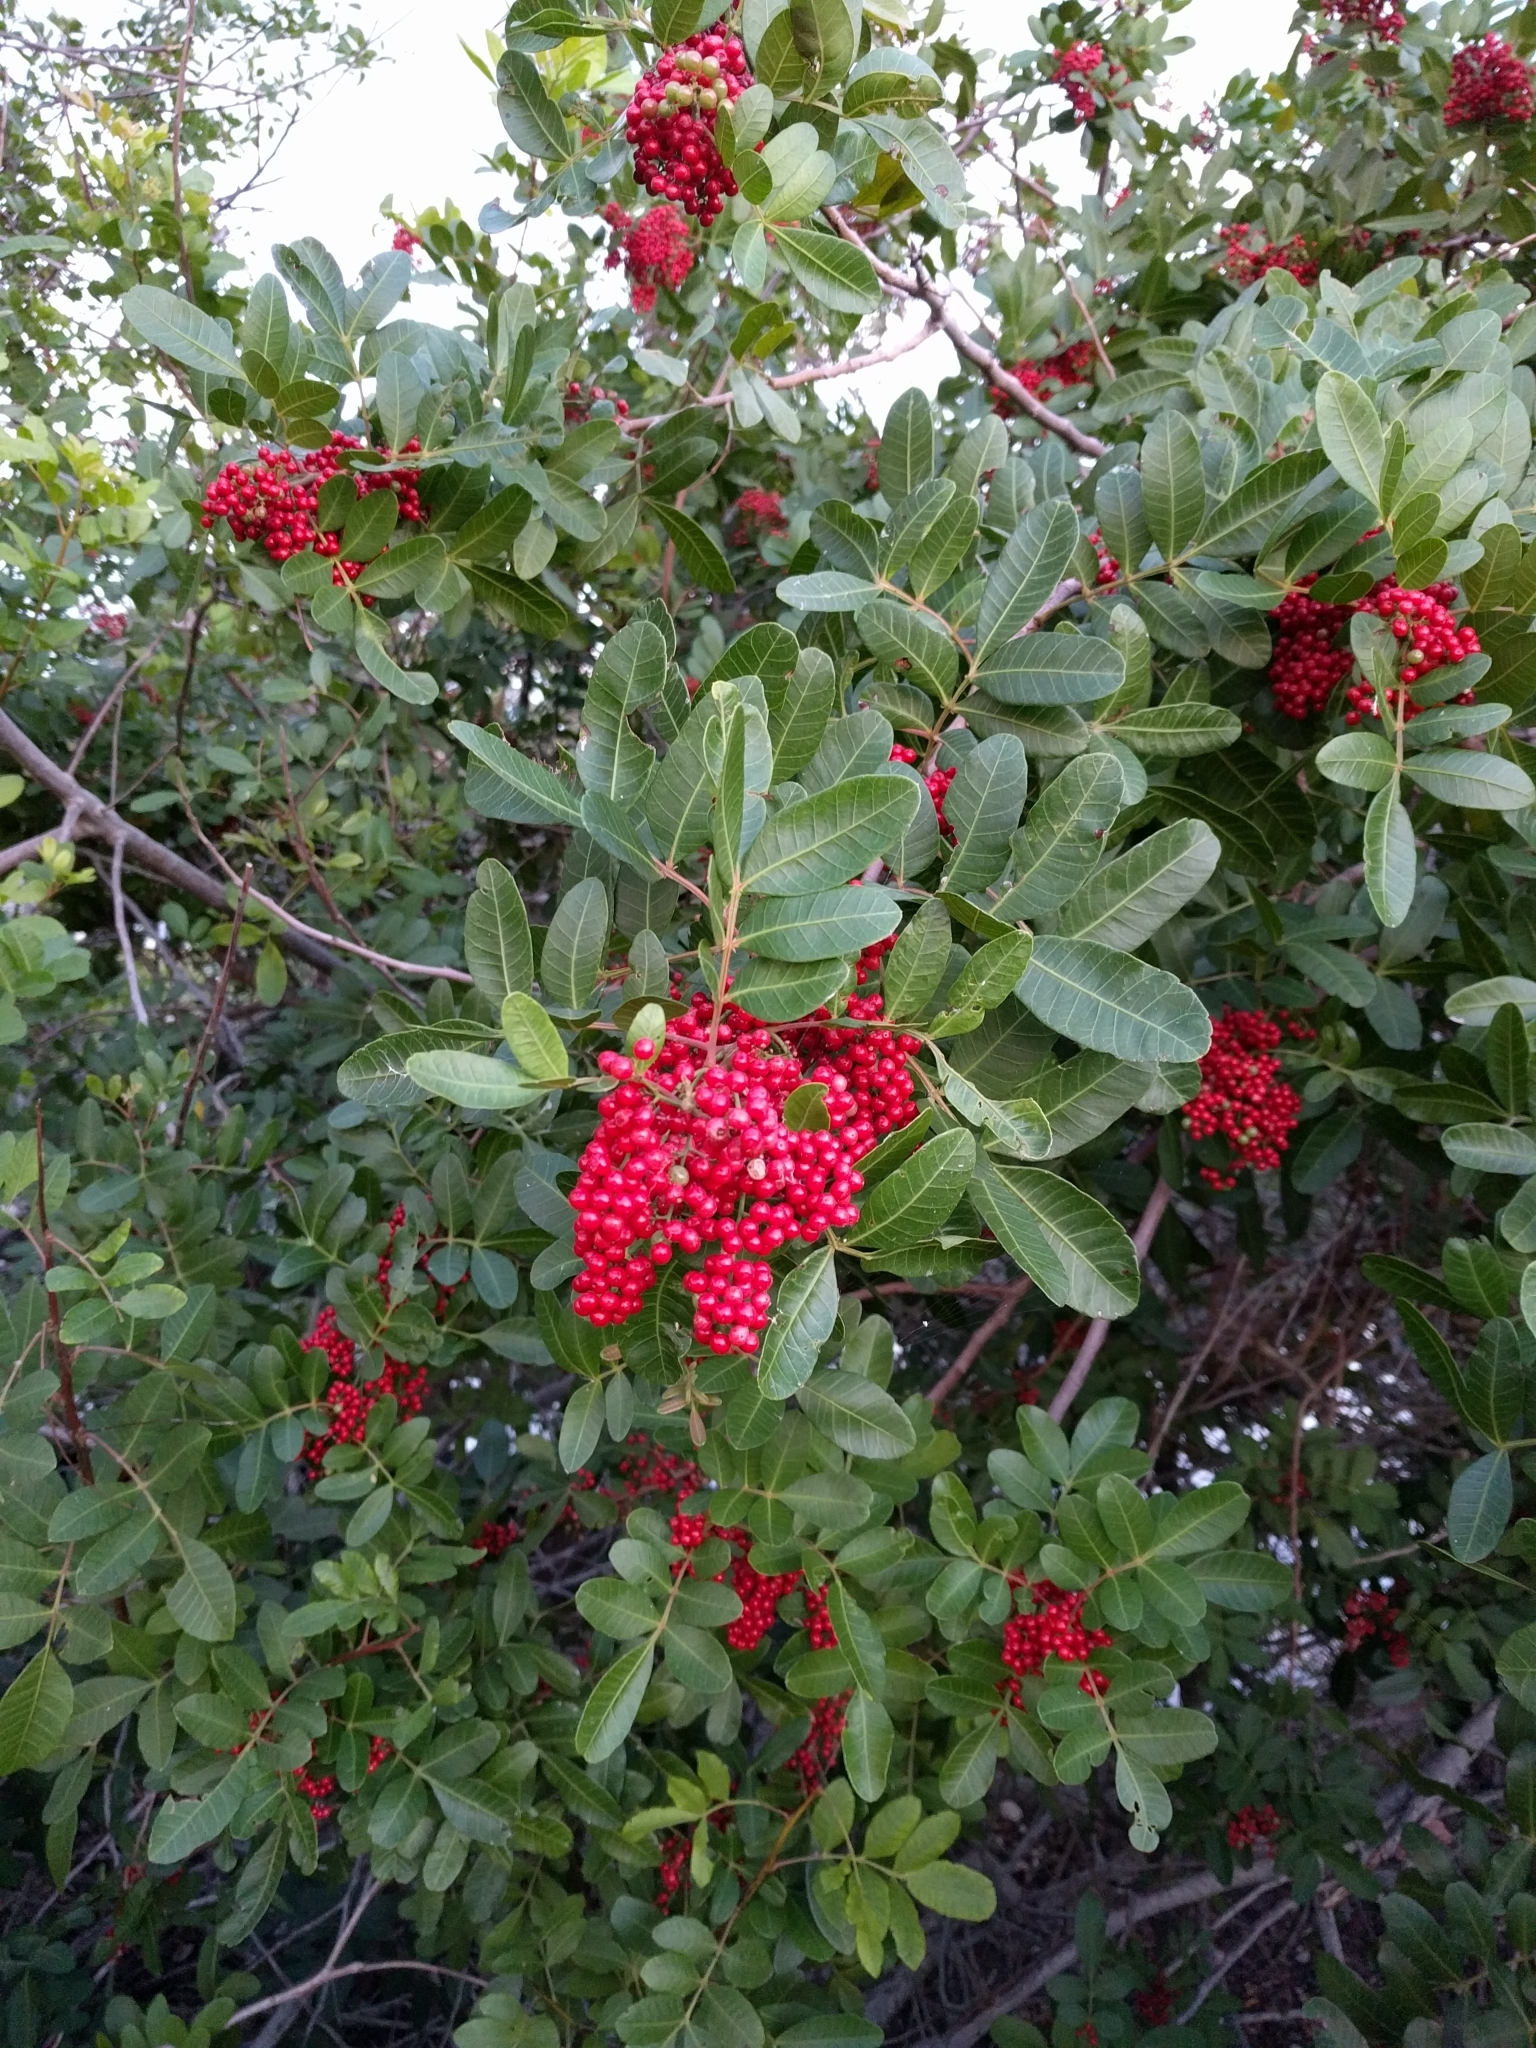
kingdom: Plantae
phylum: Tracheophyta
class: Magnoliopsida
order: Sapindales
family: Anacardiaceae
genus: Schinus
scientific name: Schinus terebinthifolia
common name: Brazilian peppertree
